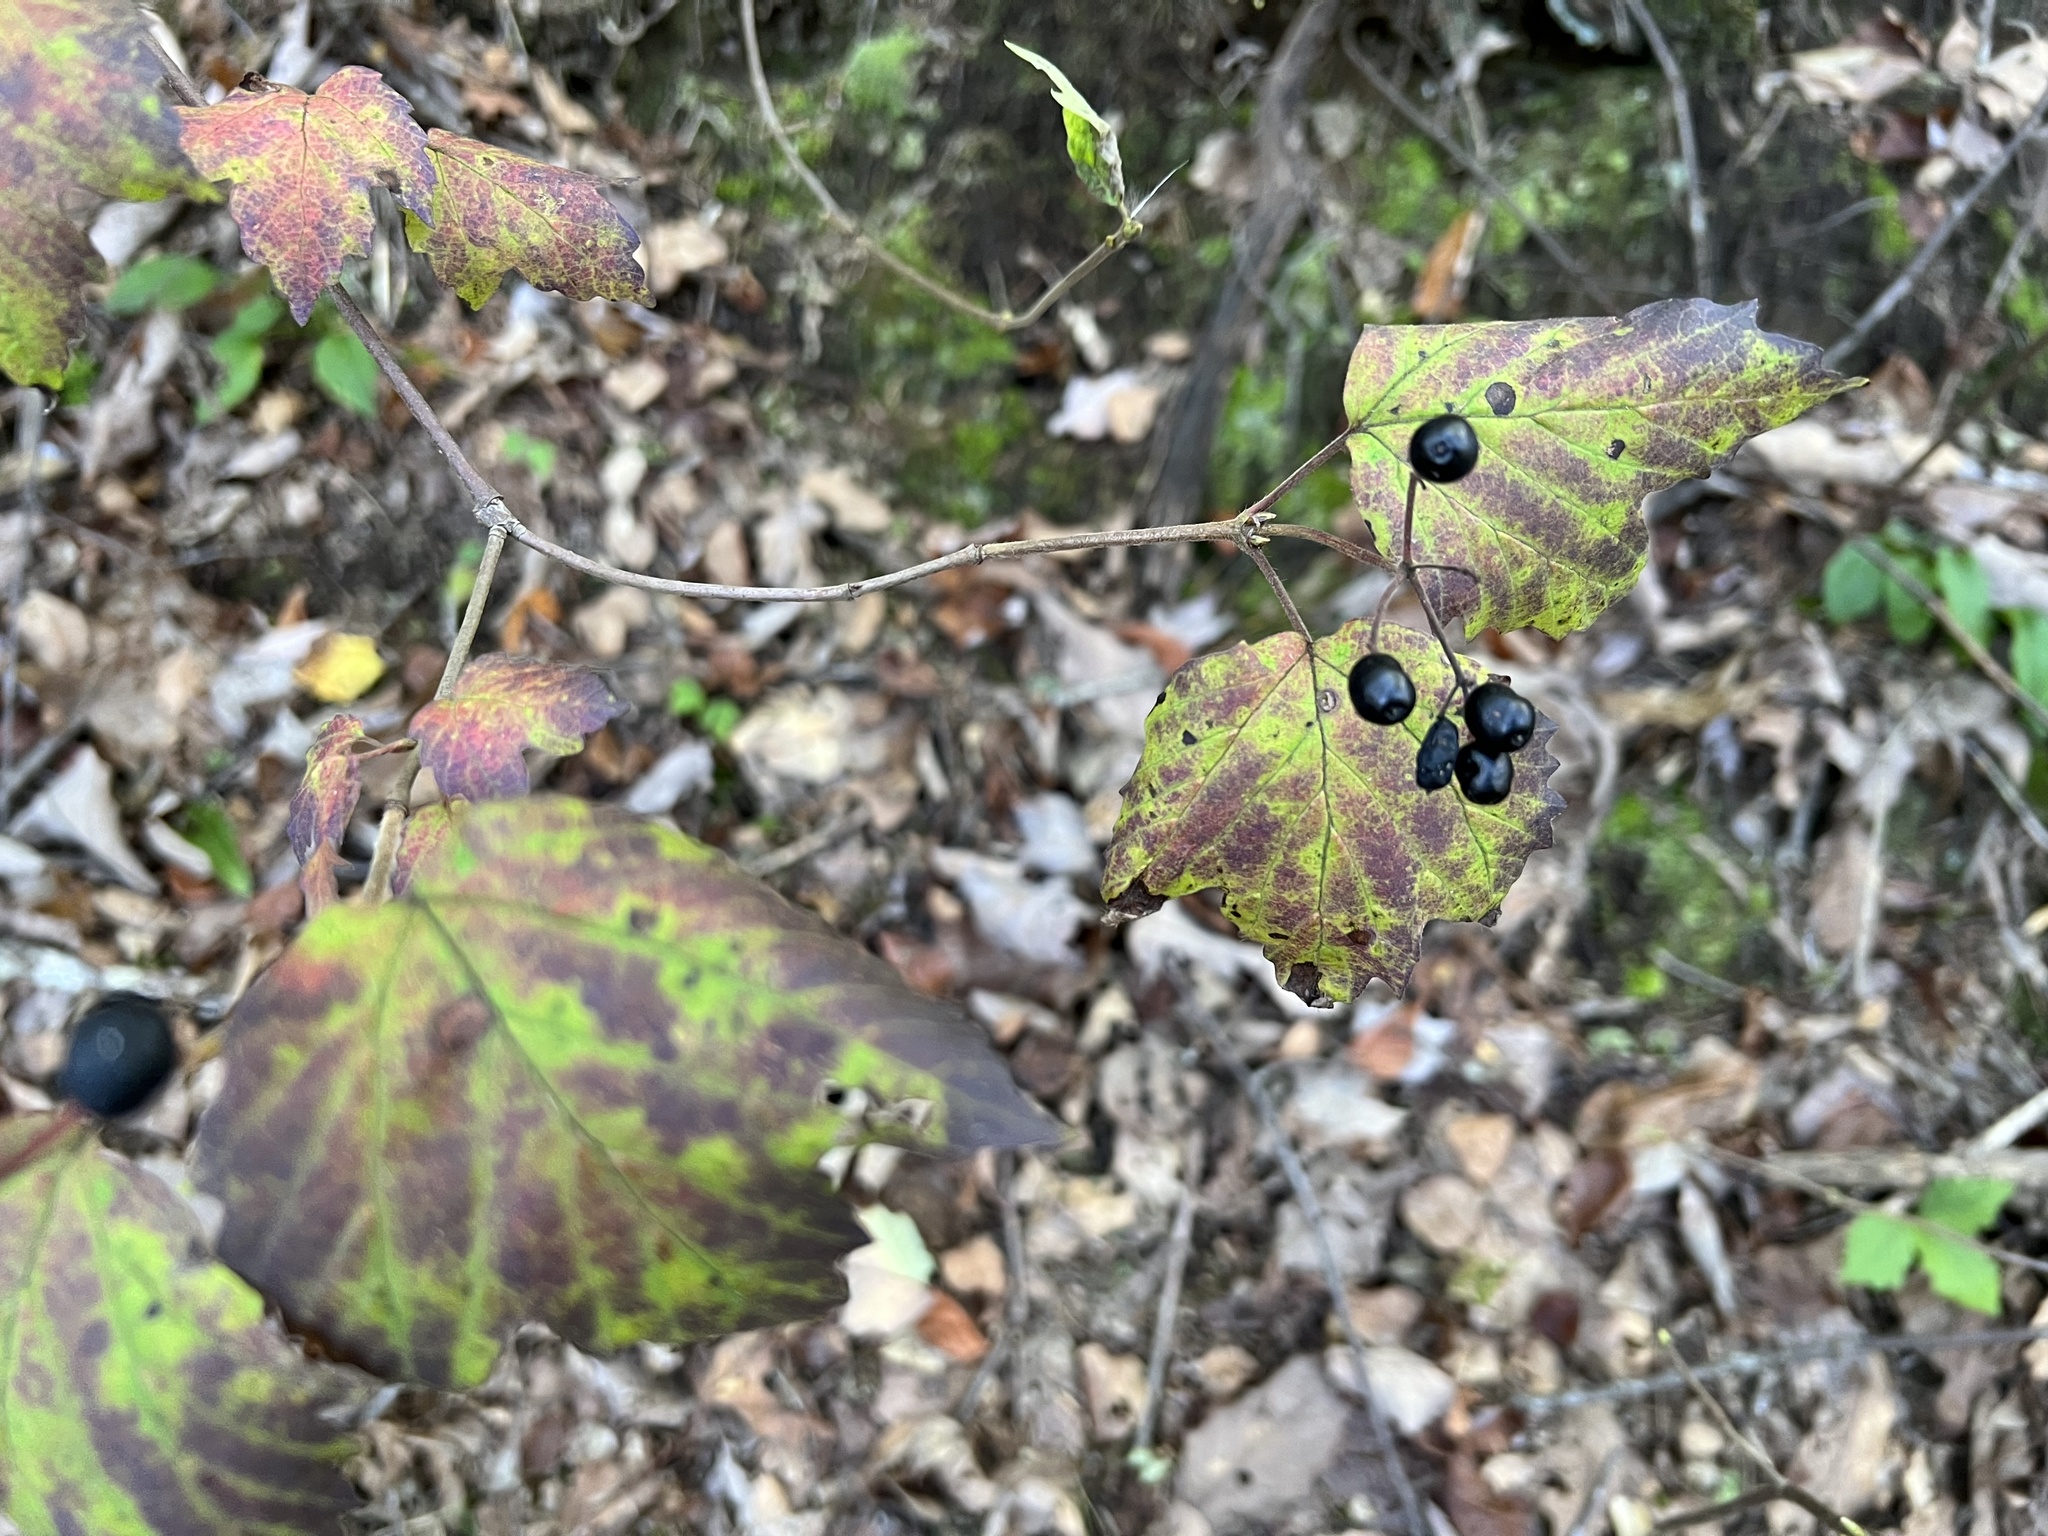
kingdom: Plantae
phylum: Tracheophyta
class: Magnoliopsida
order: Dipsacales
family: Viburnaceae
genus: Viburnum
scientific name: Viburnum acerifolium
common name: Dockmackie
